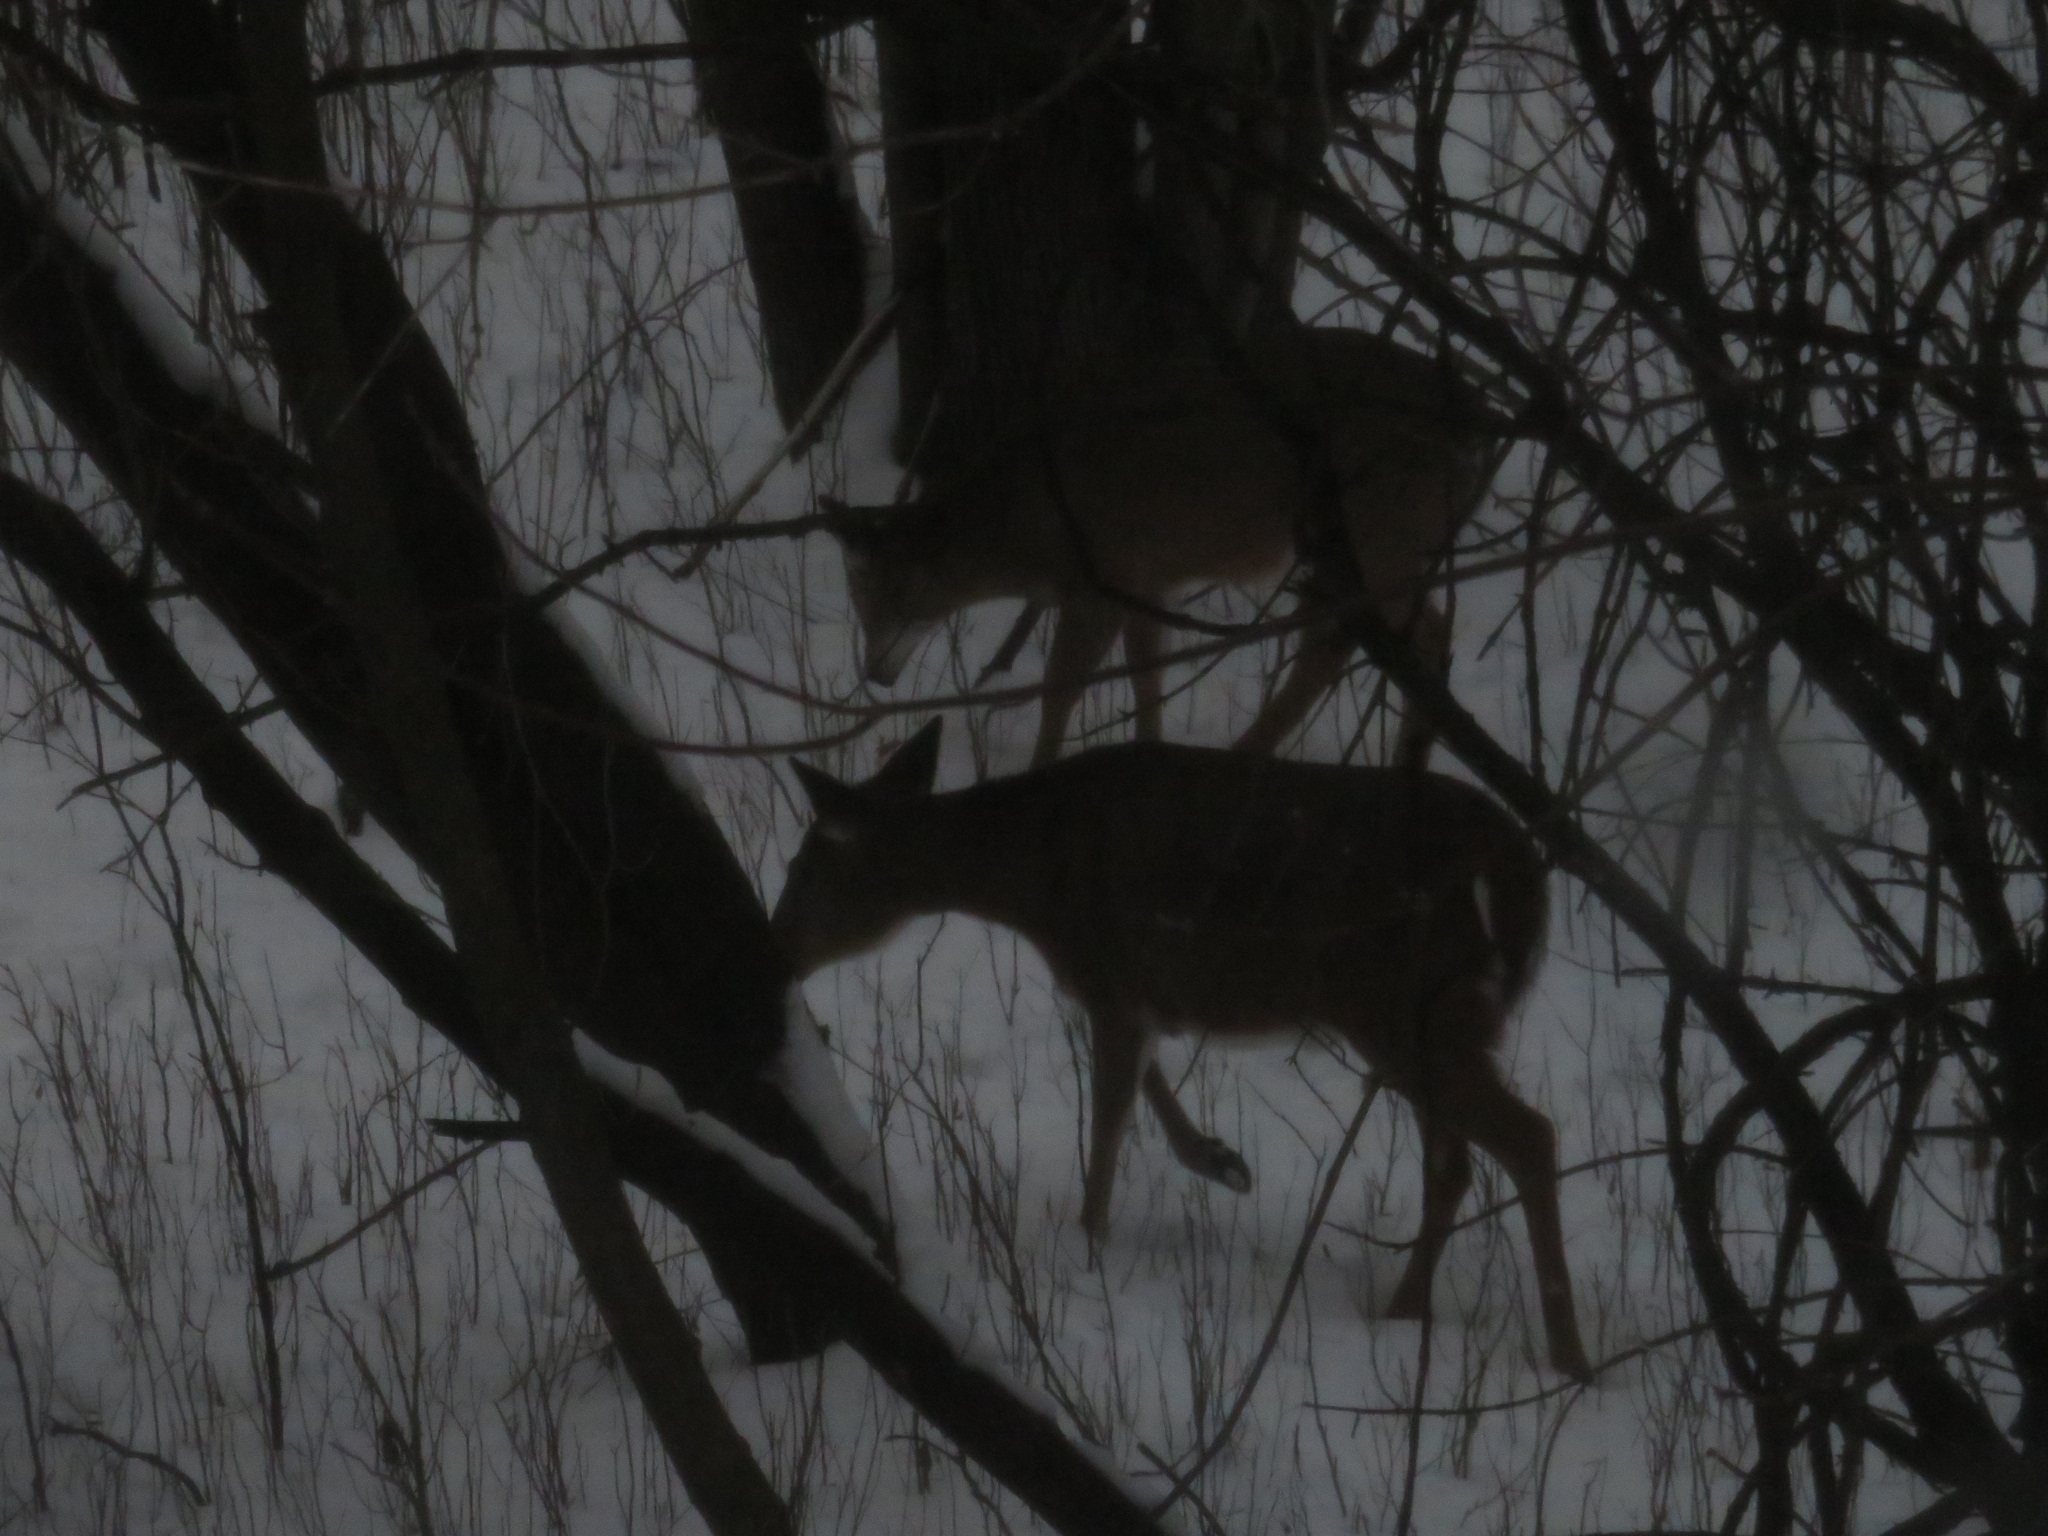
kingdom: Animalia
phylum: Chordata
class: Mammalia
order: Artiodactyla
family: Cervidae
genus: Odocoileus
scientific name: Odocoileus virginianus
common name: White-tailed deer
